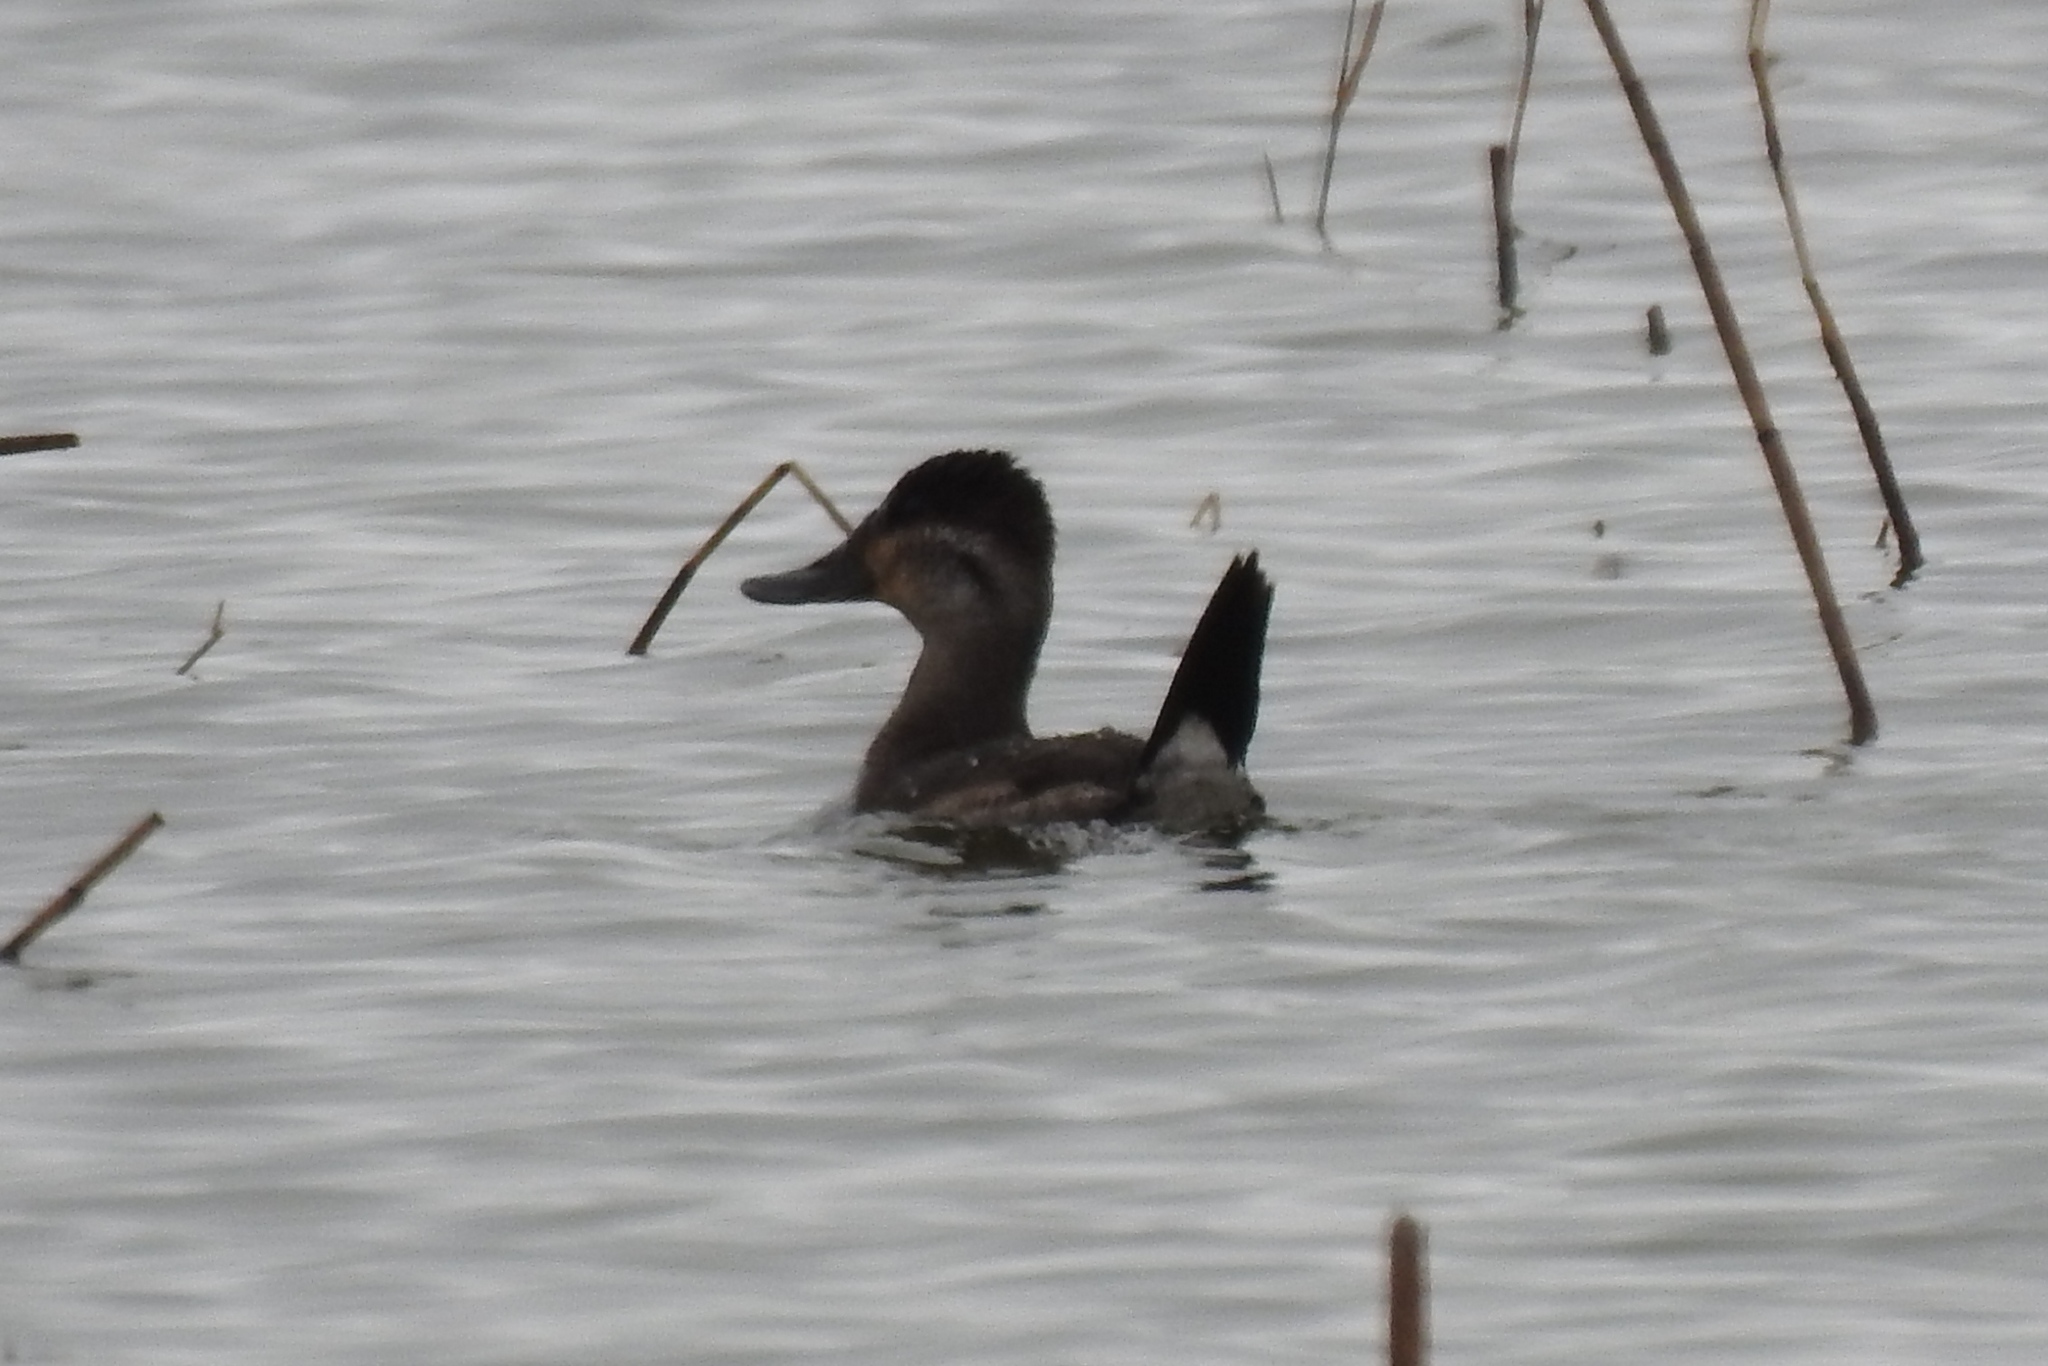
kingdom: Animalia
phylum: Chordata
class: Aves
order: Anseriformes
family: Anatidae
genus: Oxyura
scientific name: Oxyura jamaicensis
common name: Ruddy duck
